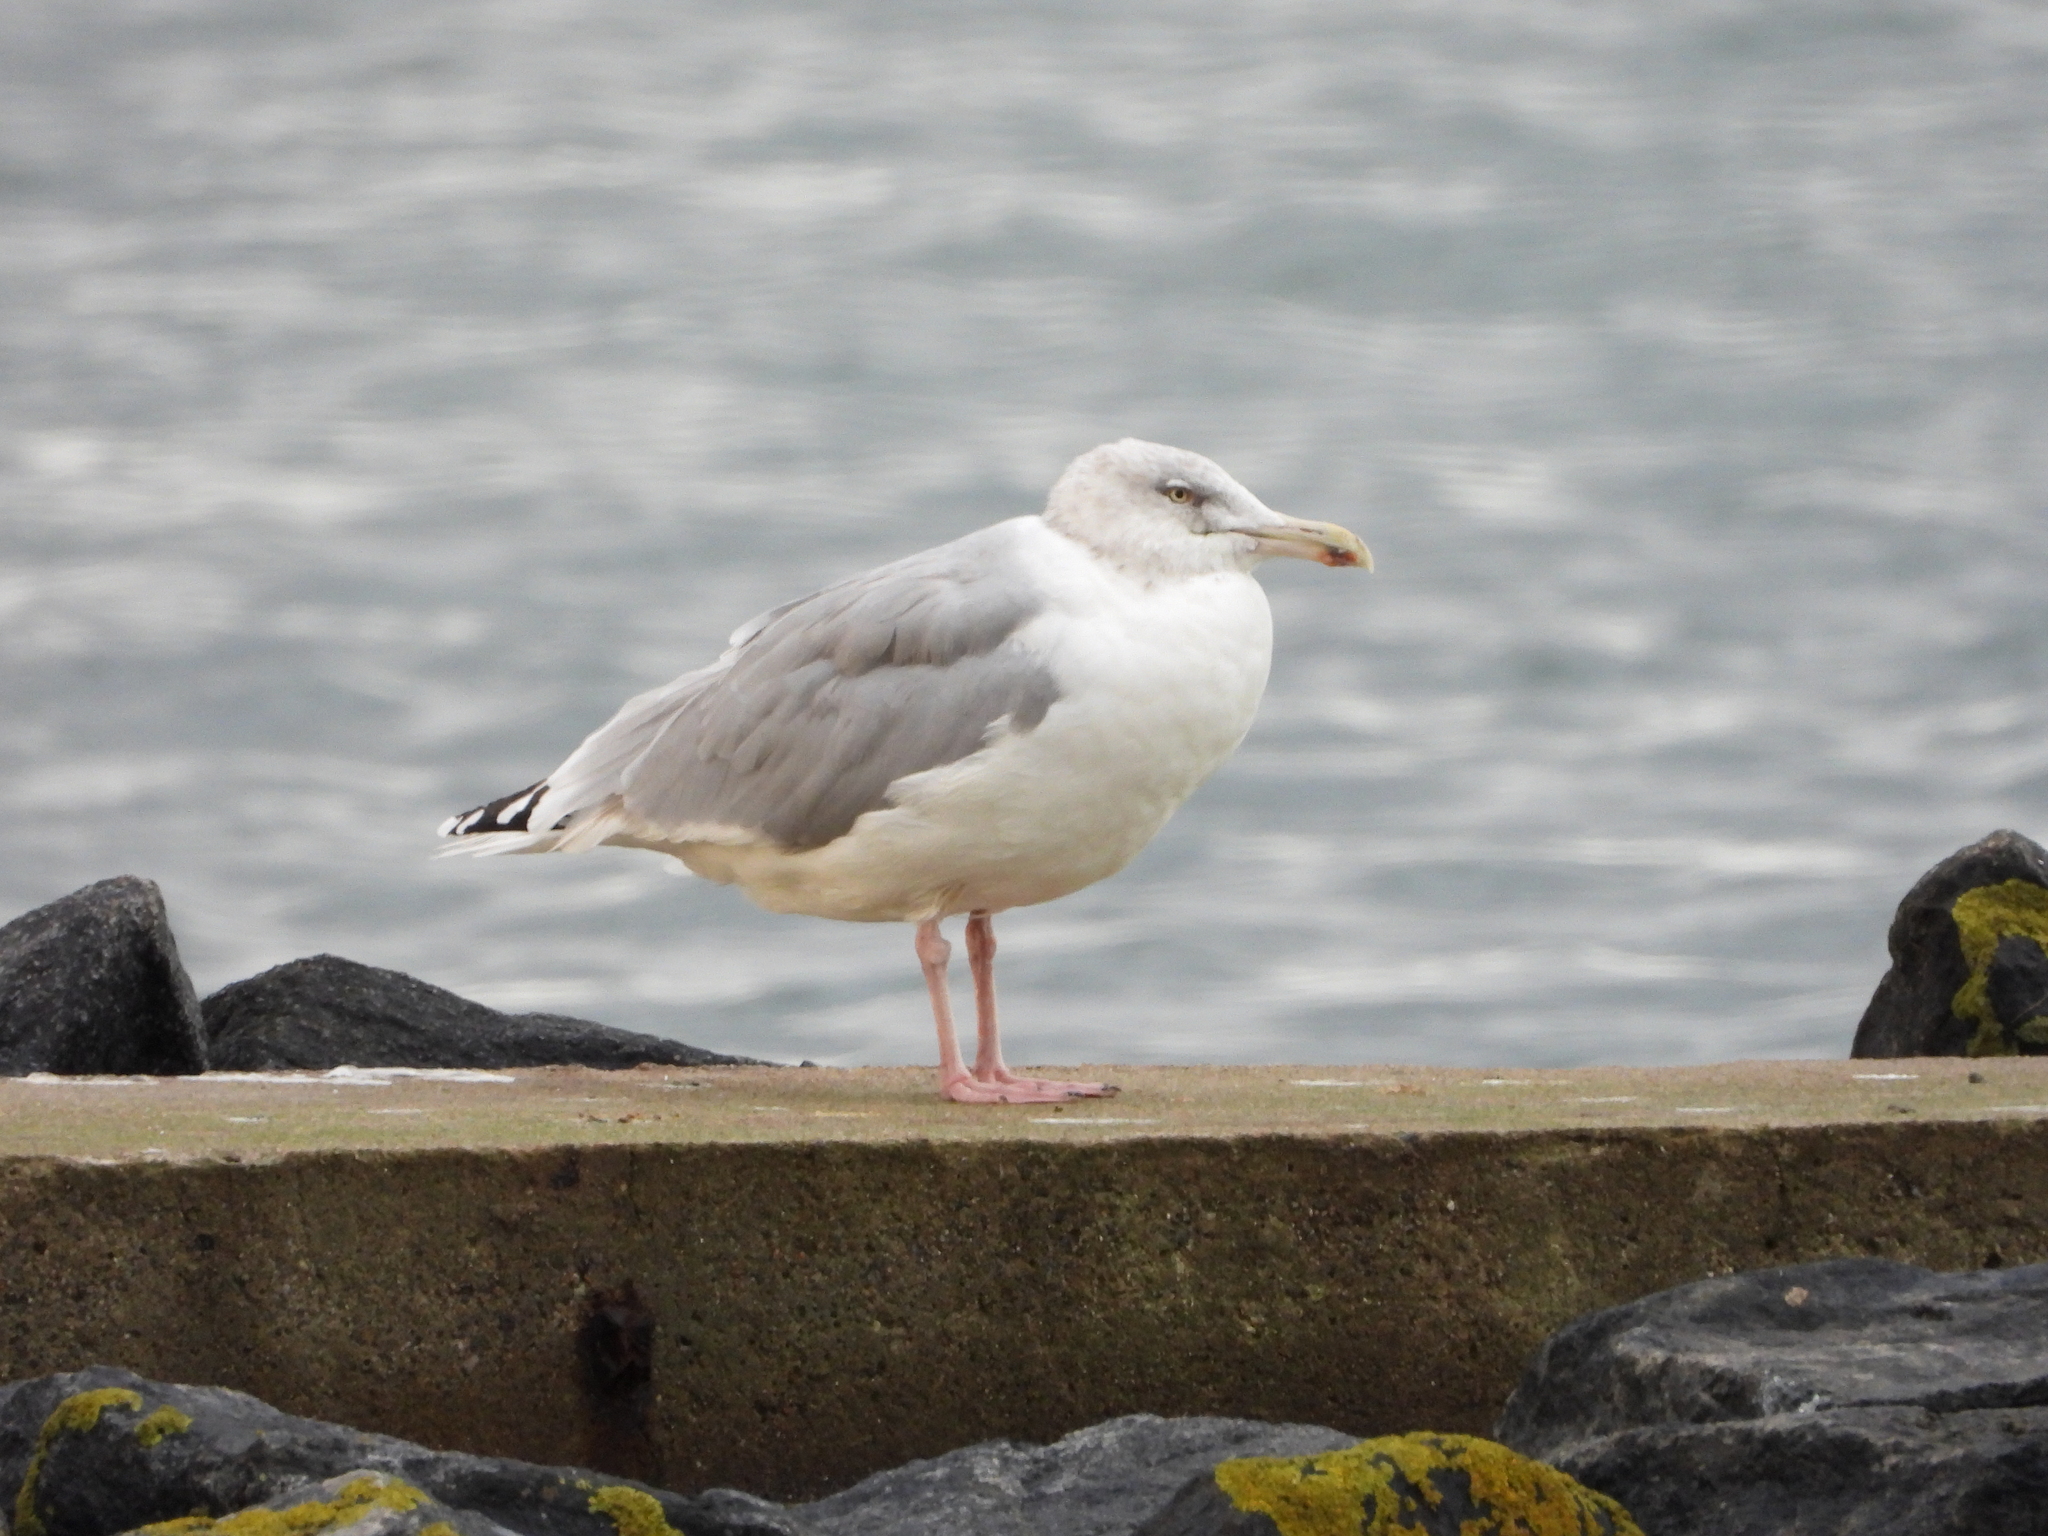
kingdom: Animalia
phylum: Chordata
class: Aves
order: Charadriiformes
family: Laridae
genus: Larus
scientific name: Larus argentatus
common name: Herring gull
